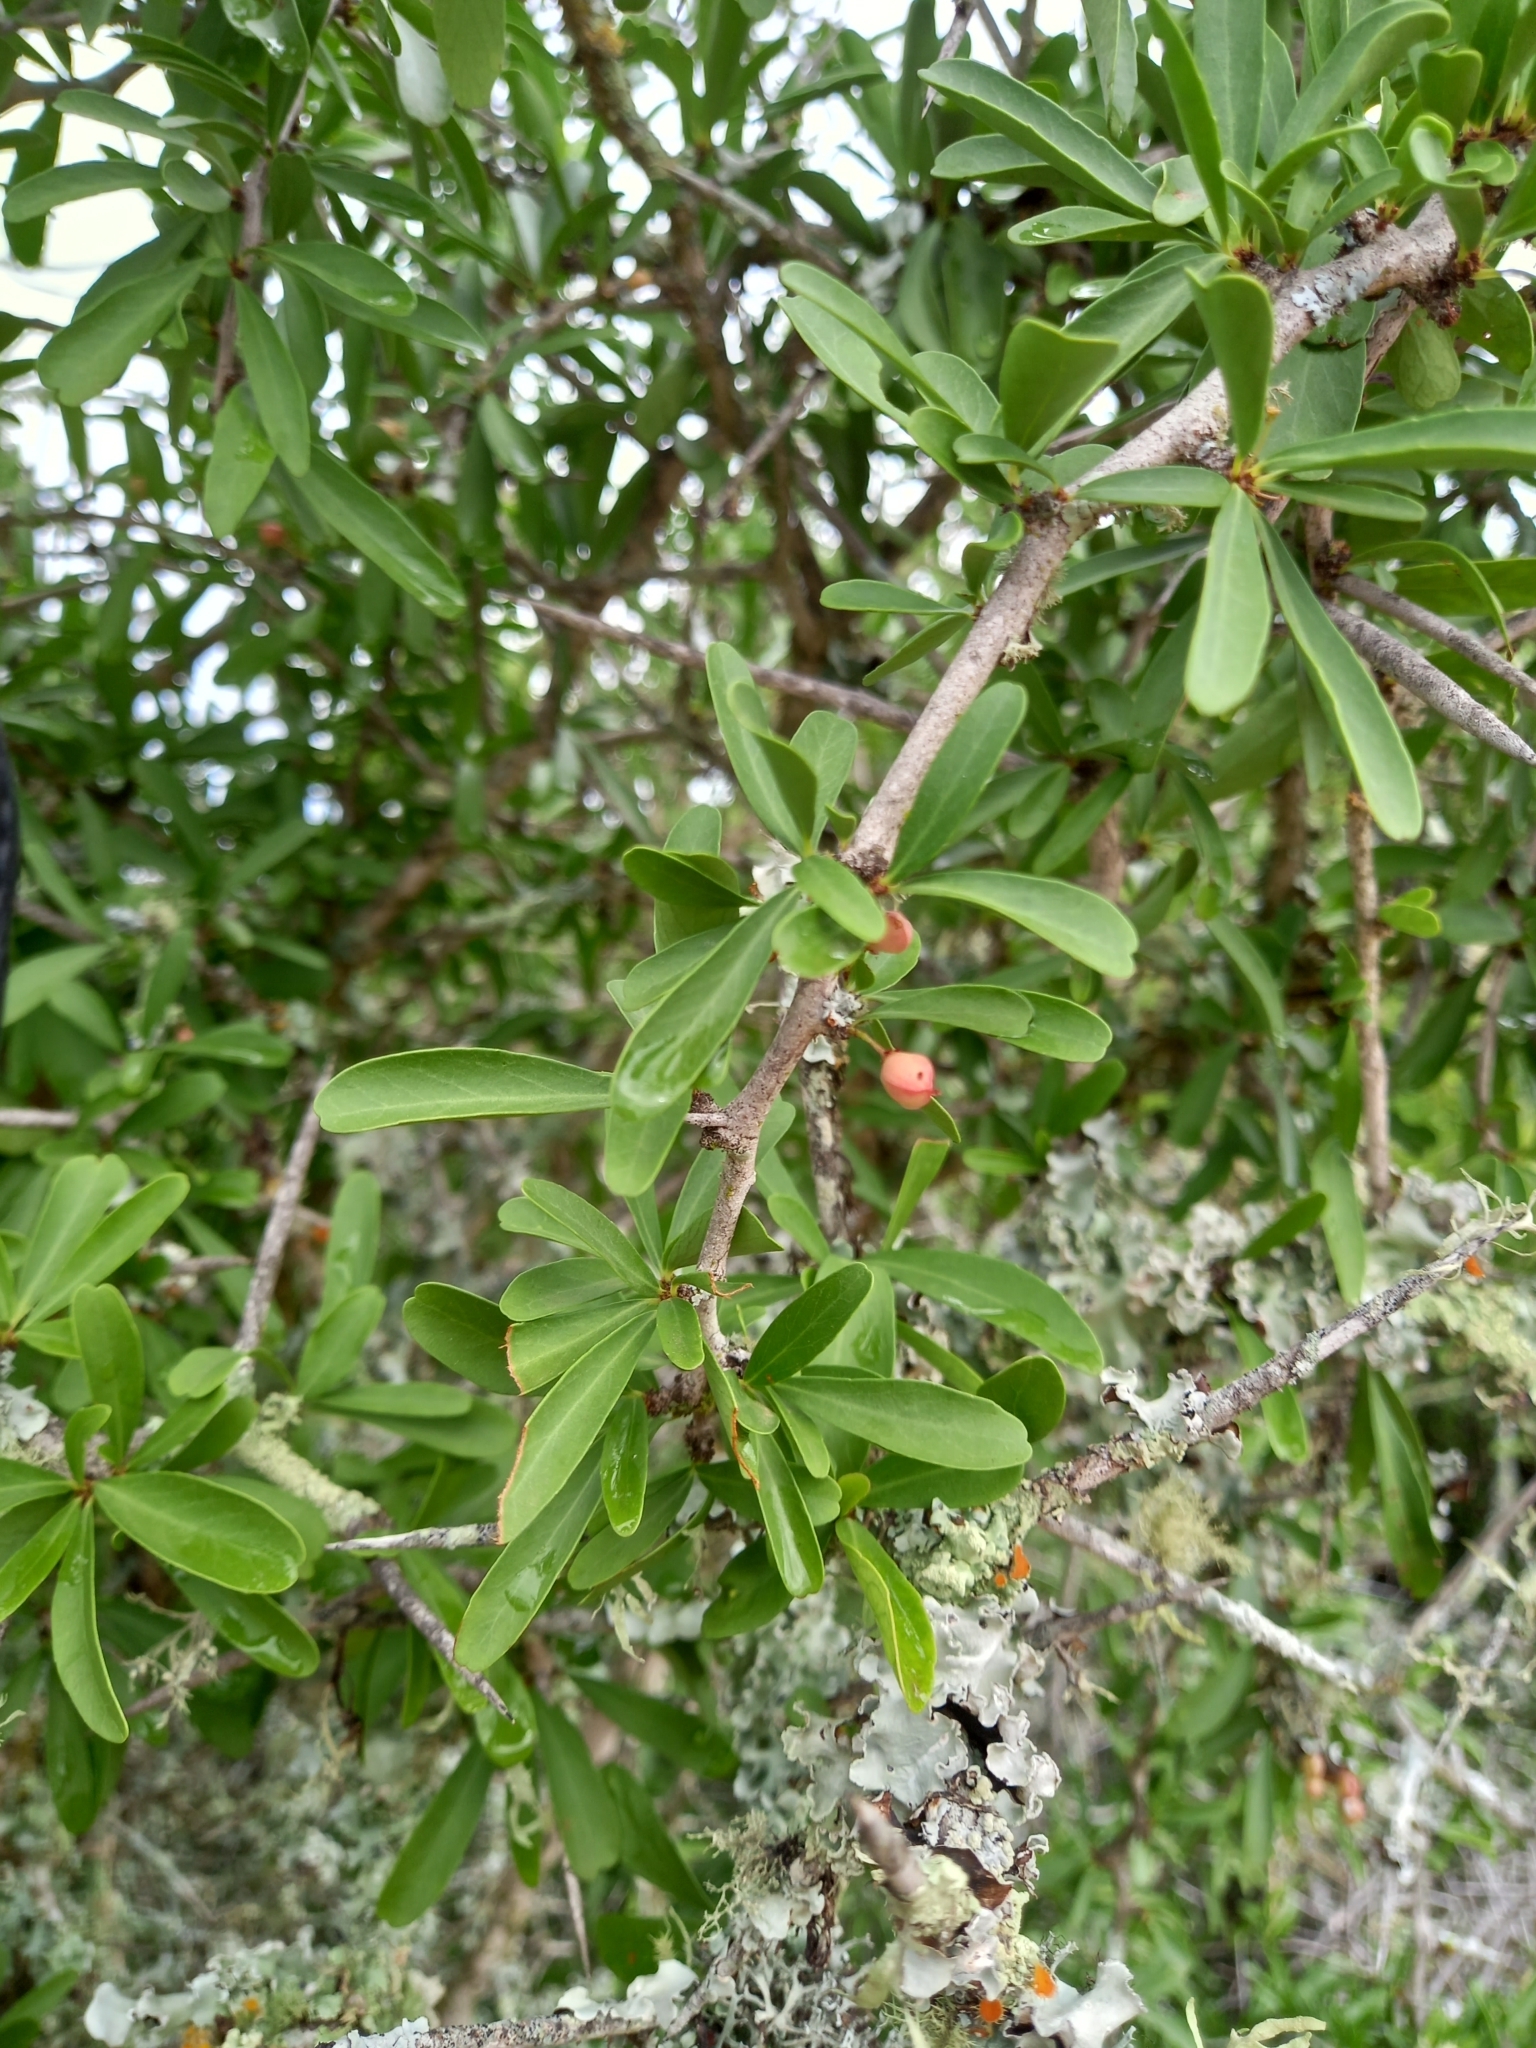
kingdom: Plantae
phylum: Tracheophyta
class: Magnoliopsida
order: Celastrales
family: Celastraceae
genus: Gymnosporia
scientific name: Gymnosporia polyacantha
